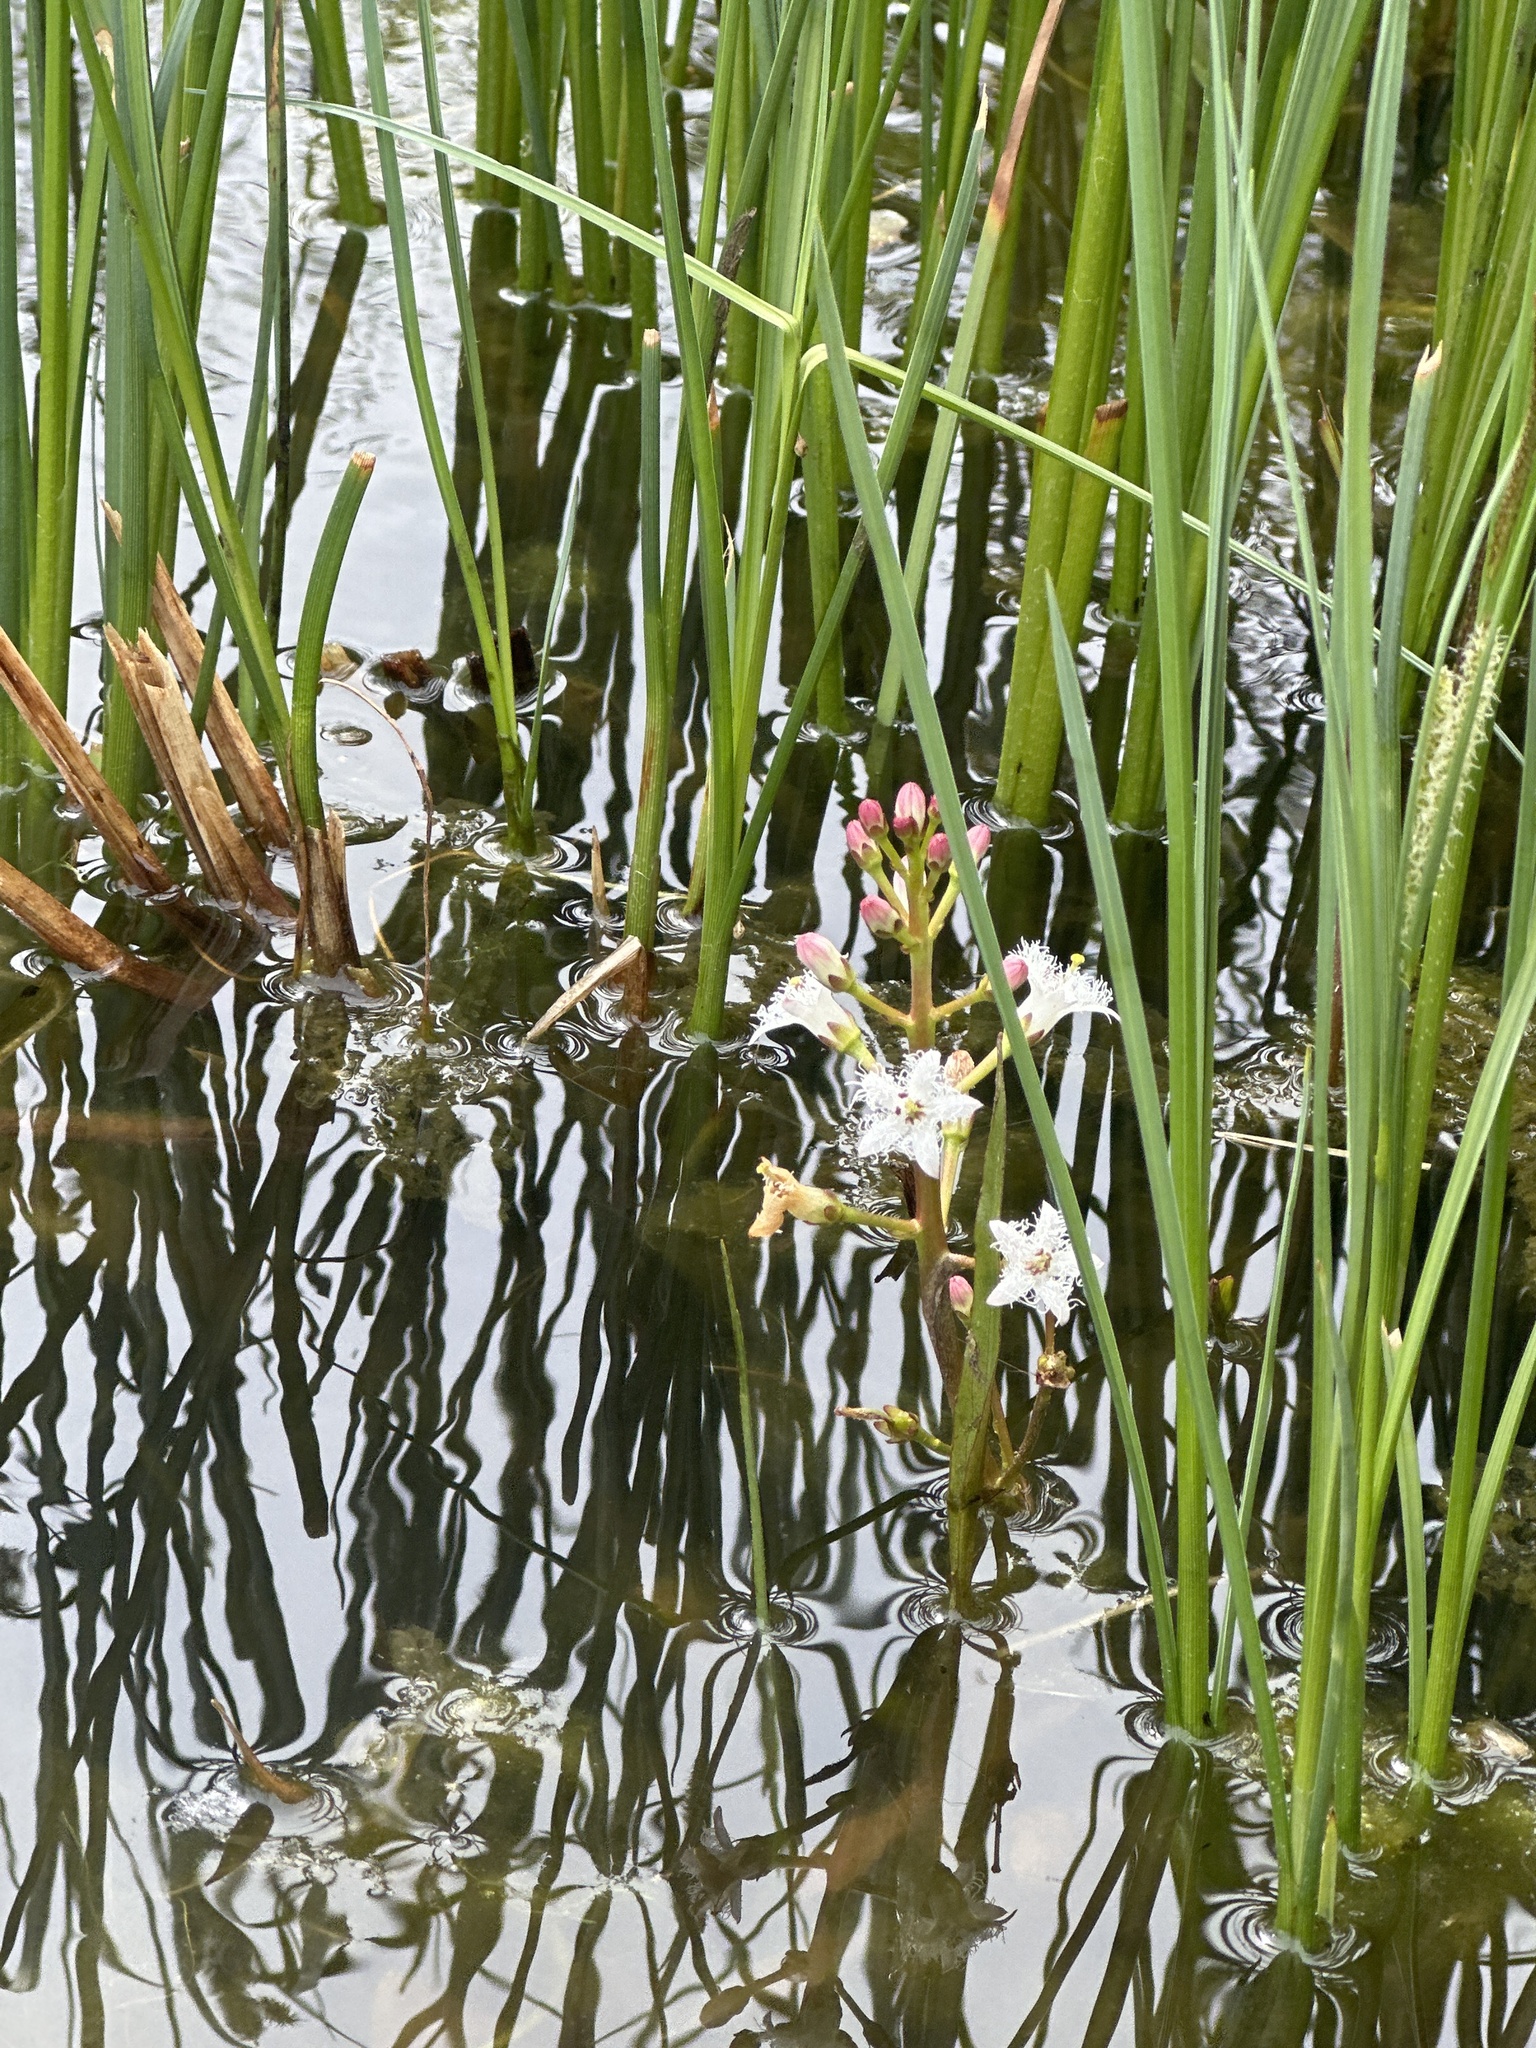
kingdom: Plantae
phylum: Tracheophyta
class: Magnoliopsida
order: Asterales
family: Menyanthaceae
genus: Menyanthes
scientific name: Menyanthes trifoliata
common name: Bogbean
